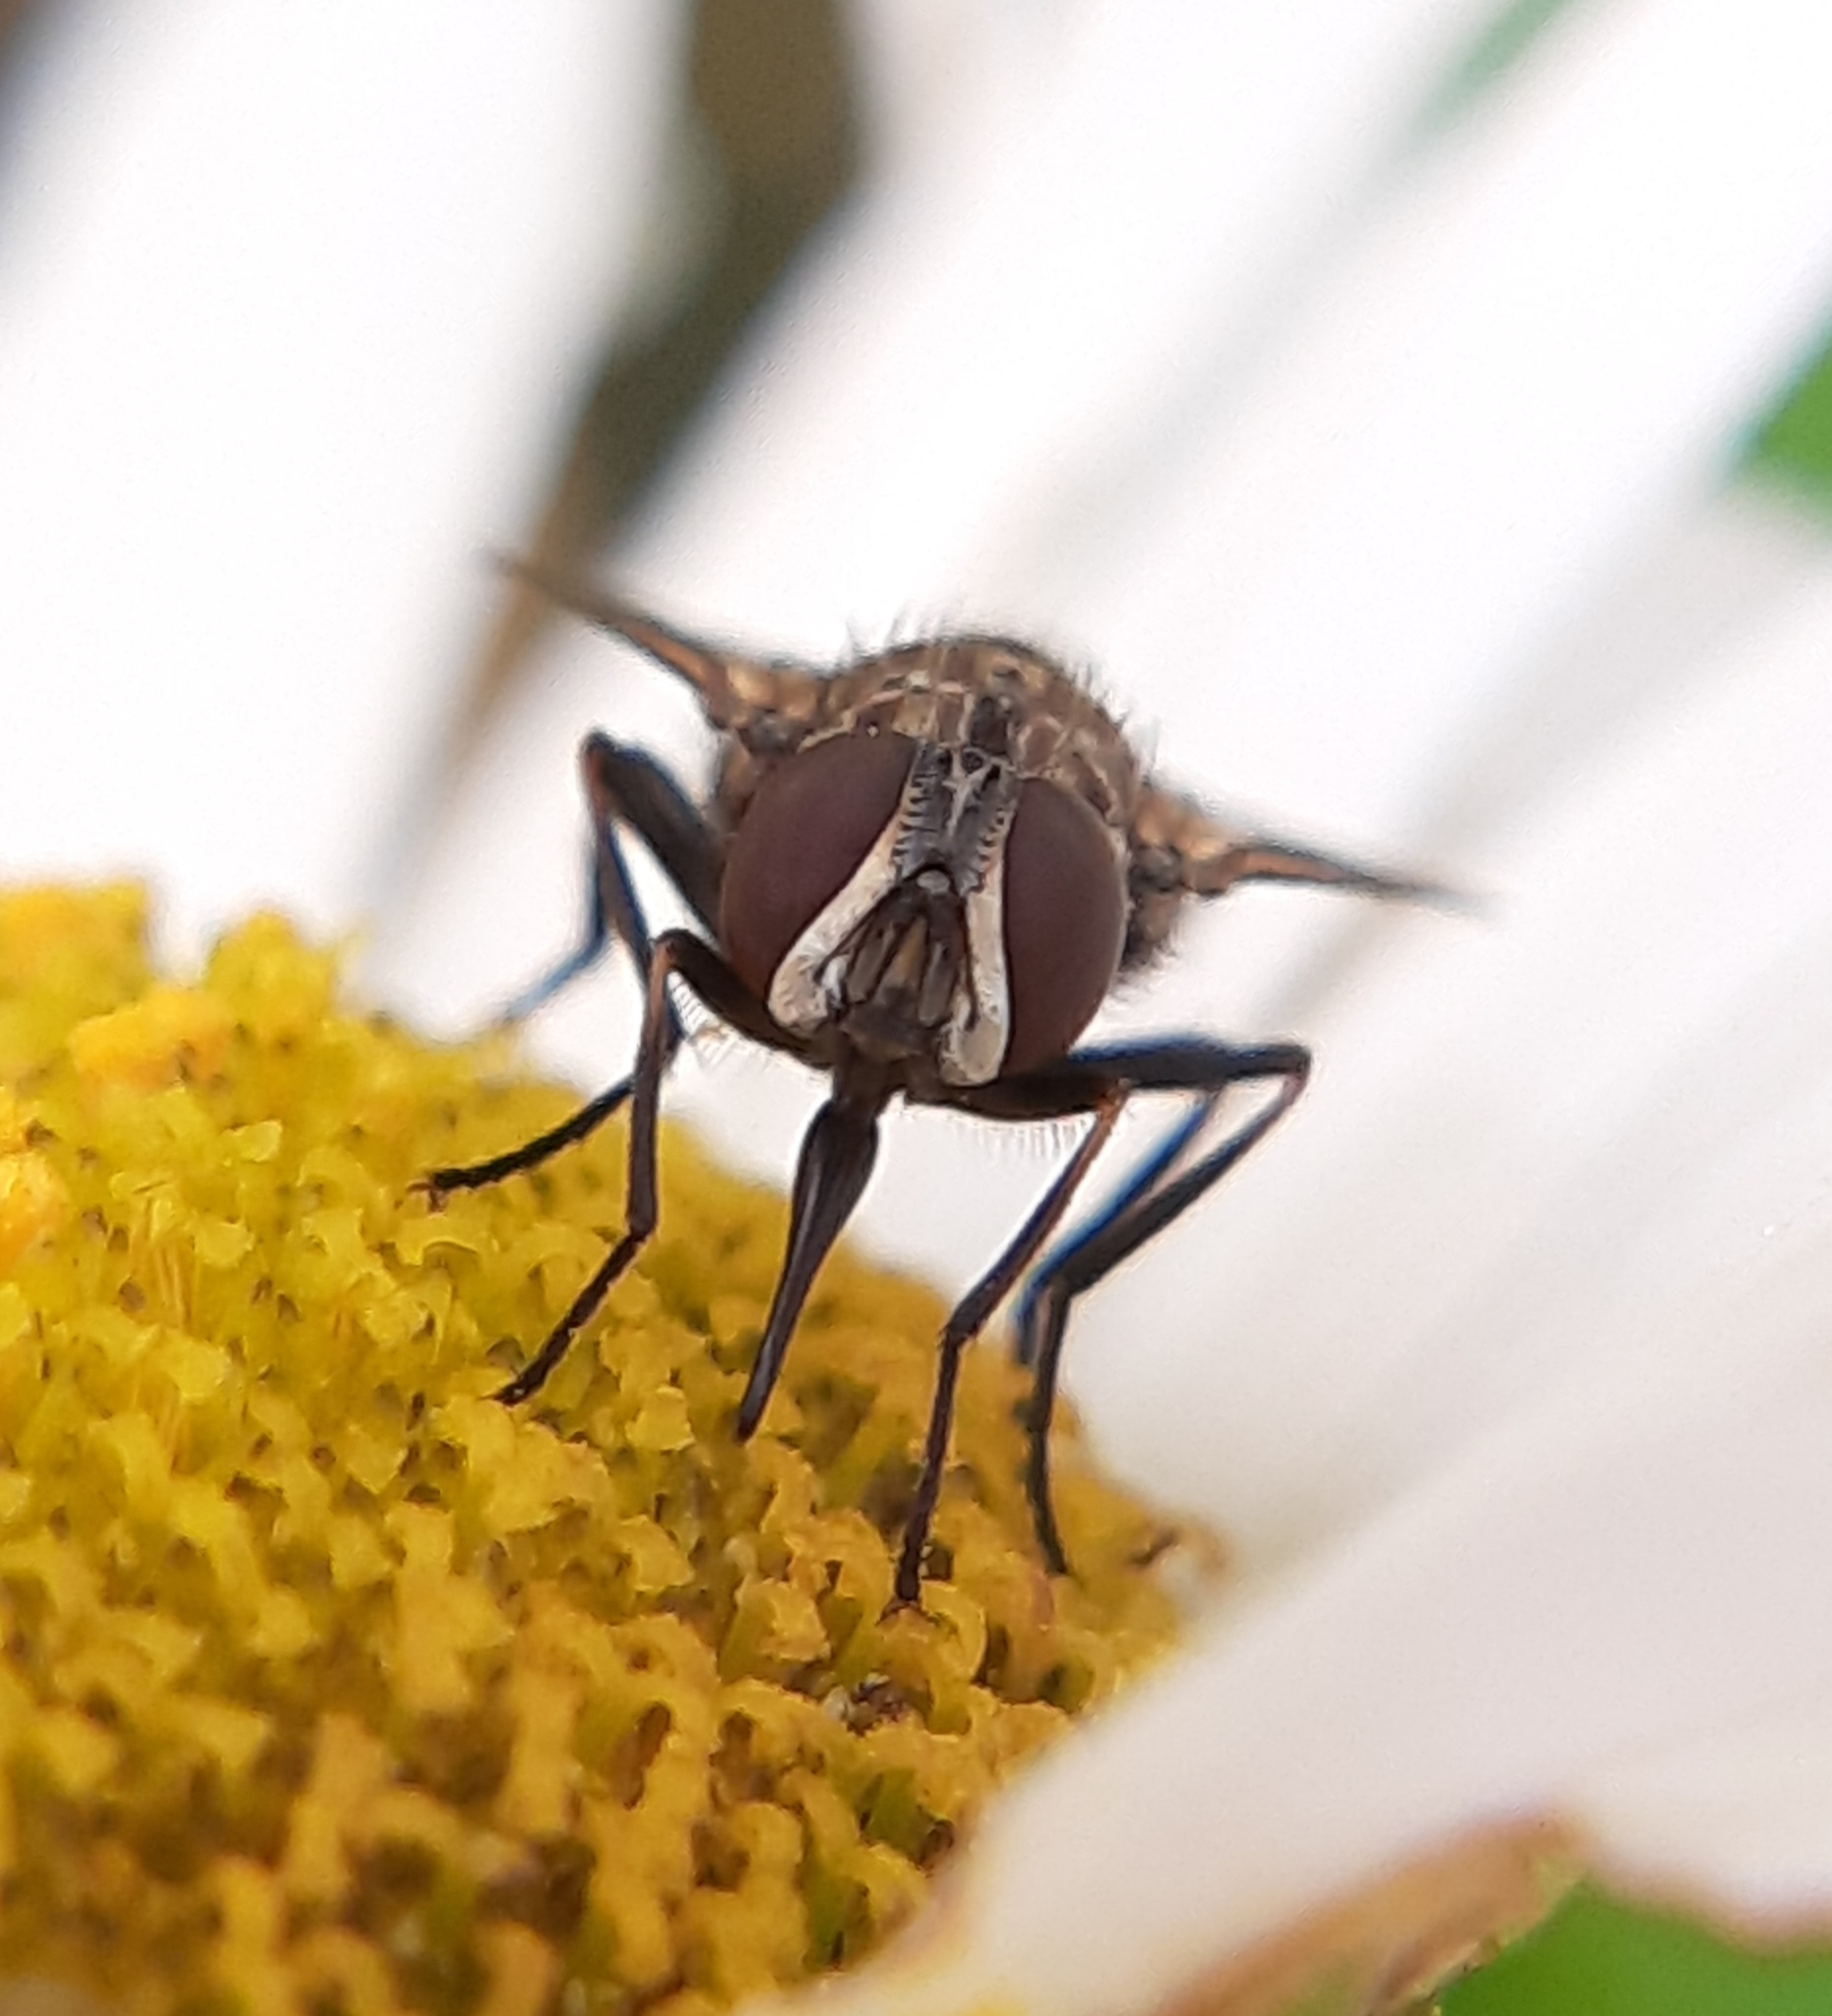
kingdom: Animalia
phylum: Arthropoda
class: Insecta
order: Diptera
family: Muscidae
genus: Stomoxys
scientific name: Stomoxys calcitrans
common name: Stable fly
